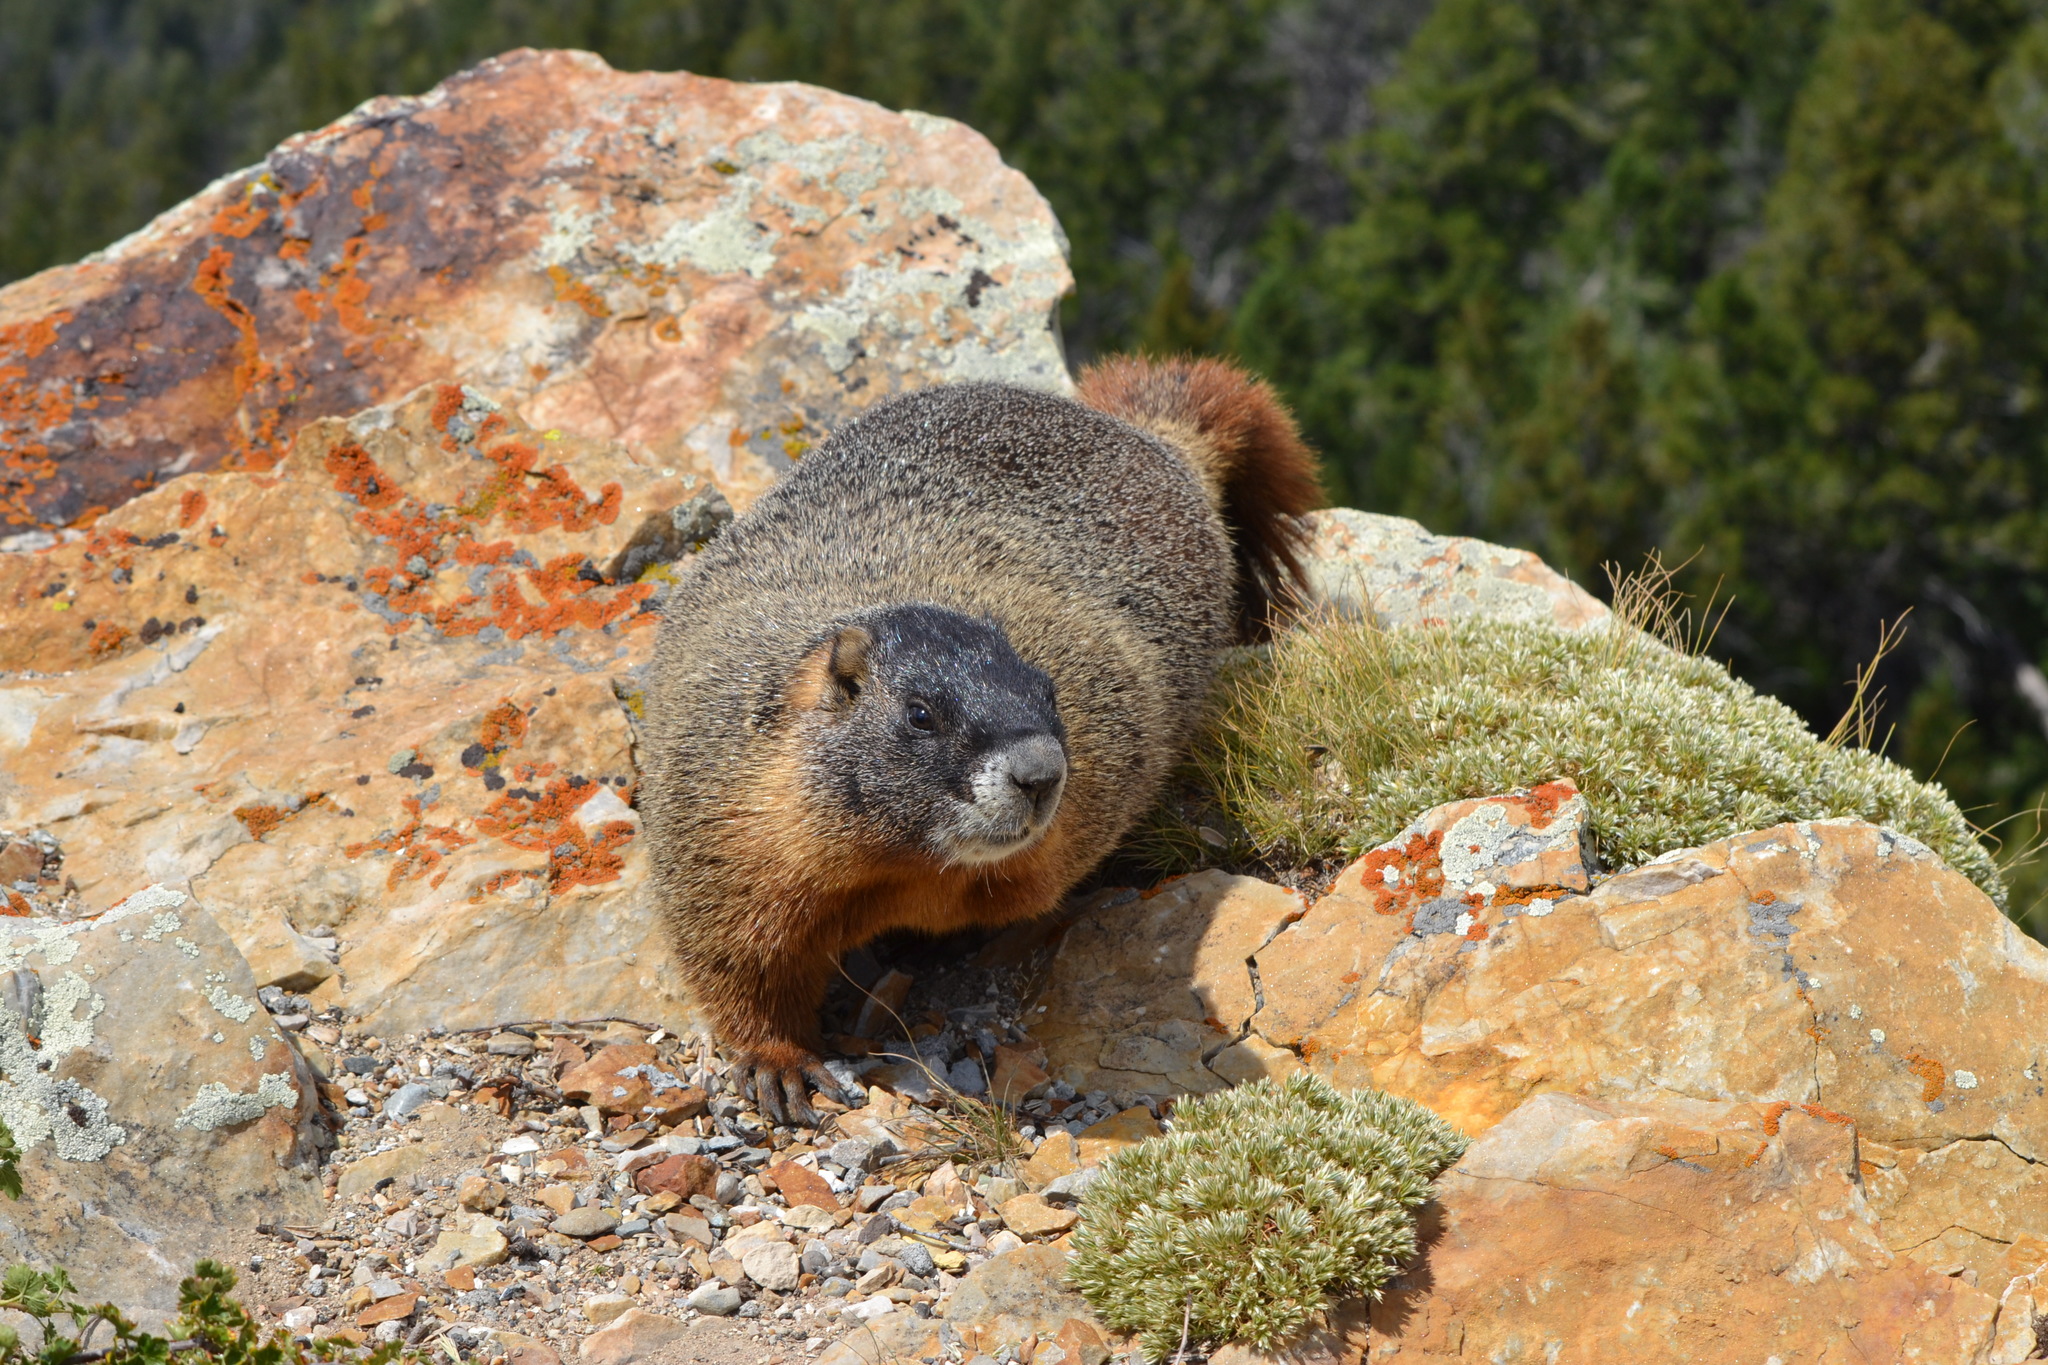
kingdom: Animalia
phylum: Chordata
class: Mammalia
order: Rodentia
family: Sciuridae
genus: Marmota
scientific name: Marmota flaviventris
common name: Yellow-bellied marmot
